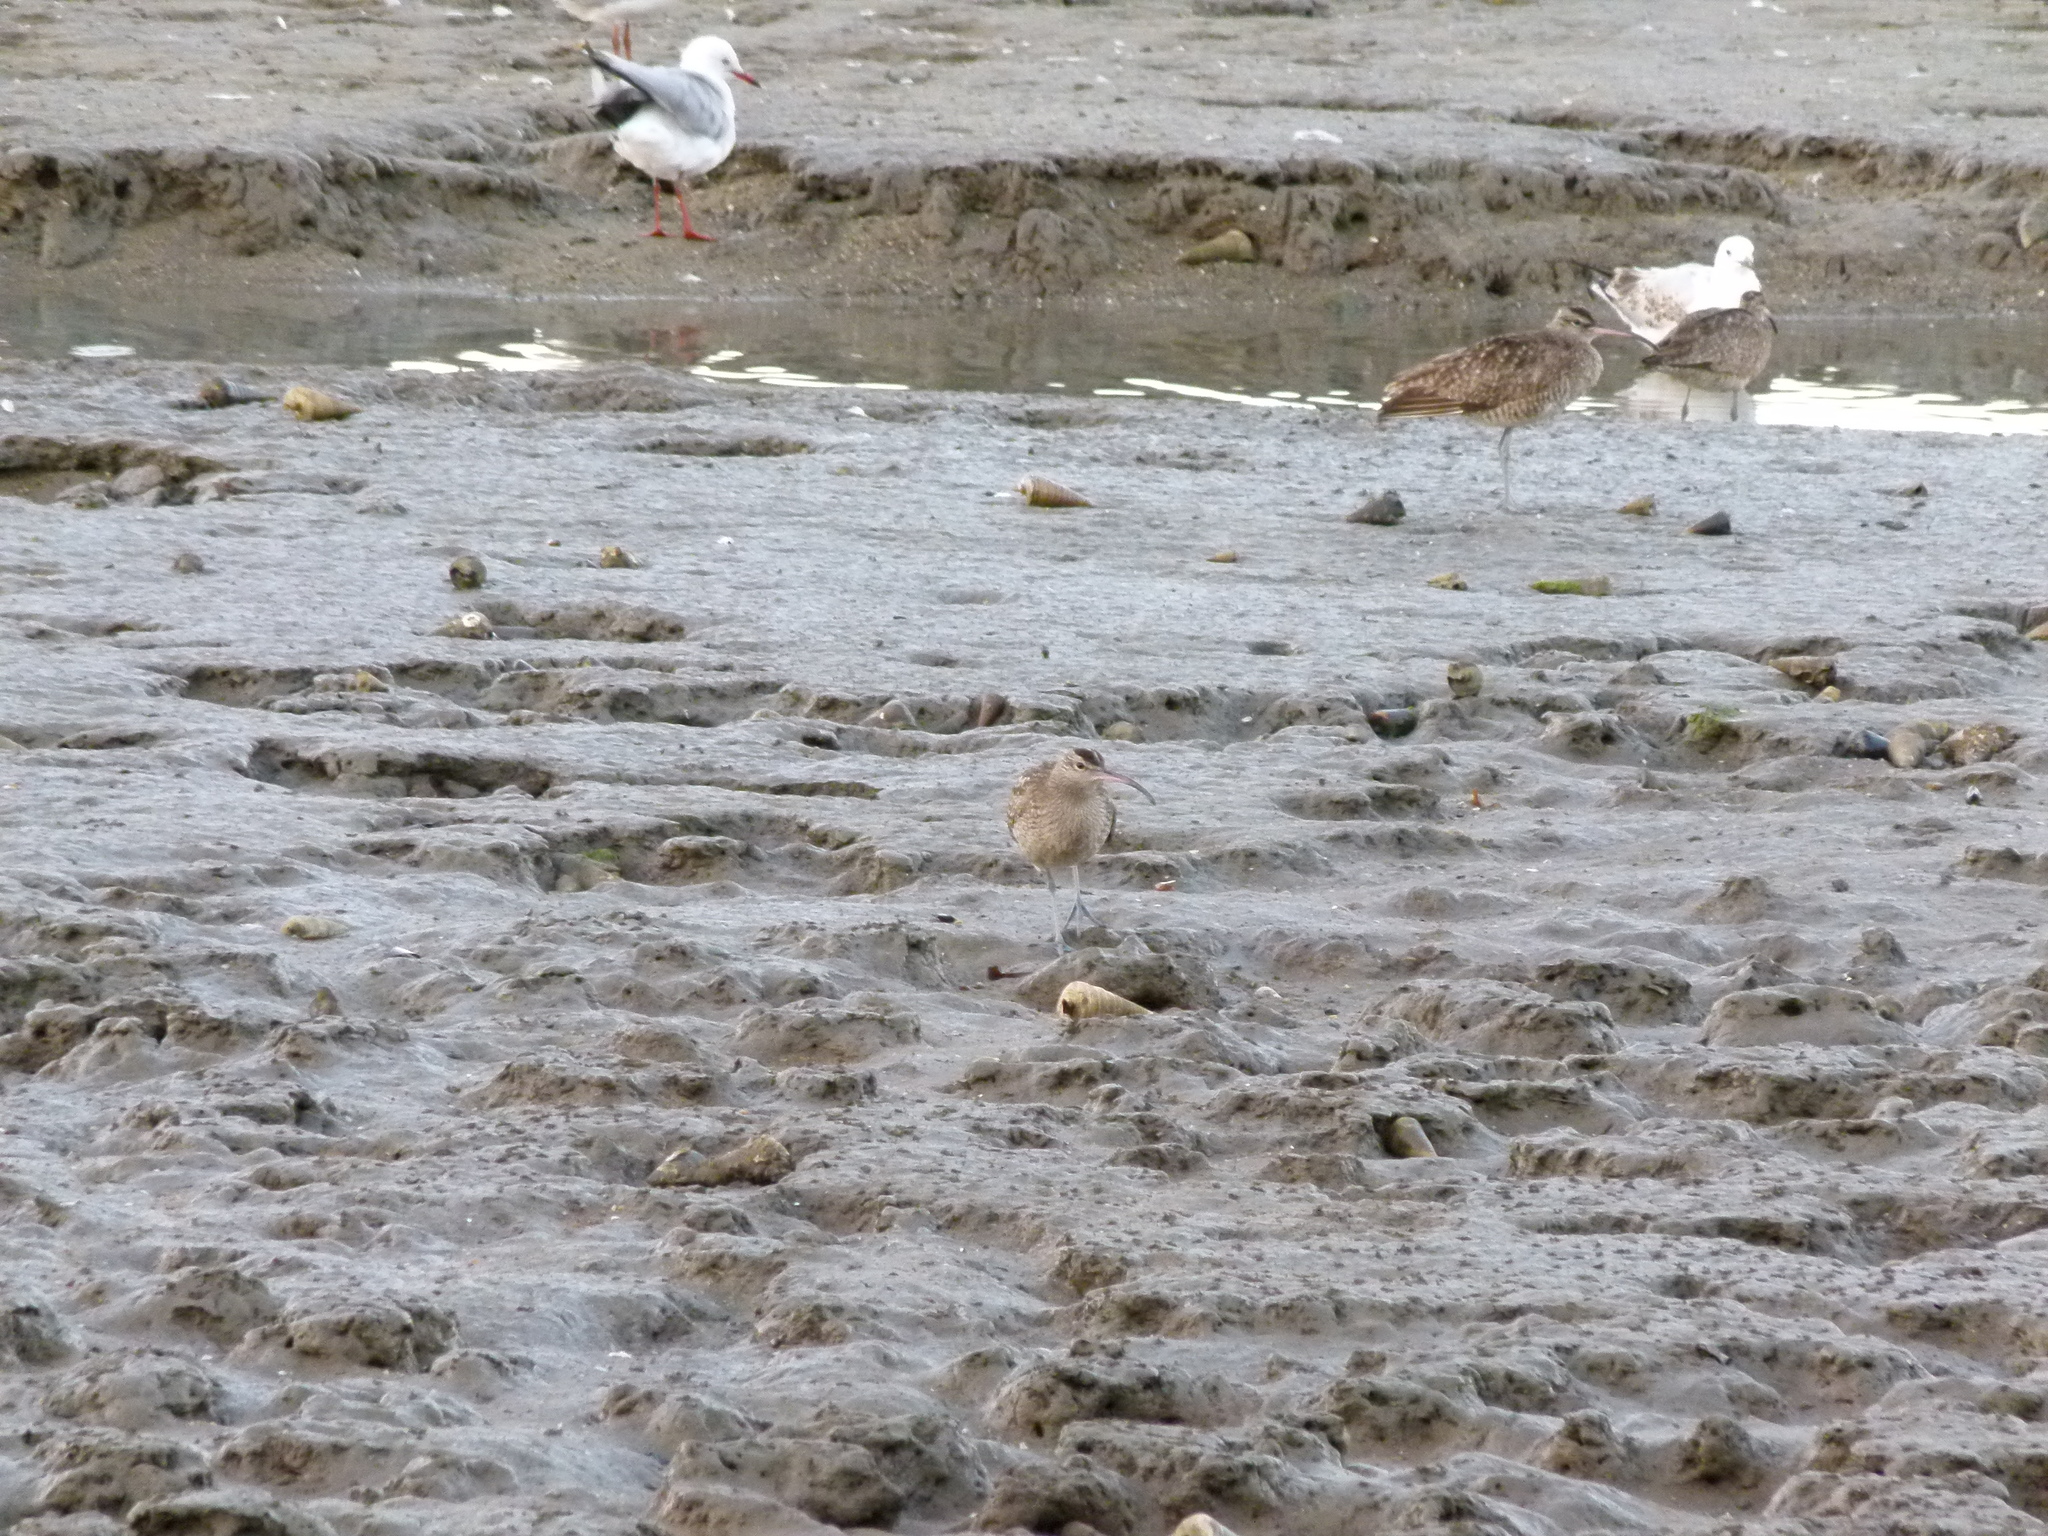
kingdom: Animalia
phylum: Chordata
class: Aves
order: Charadriiformes
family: Scolopacidae
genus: Numenius
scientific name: Numenius phaeopus
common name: Whimbrel
